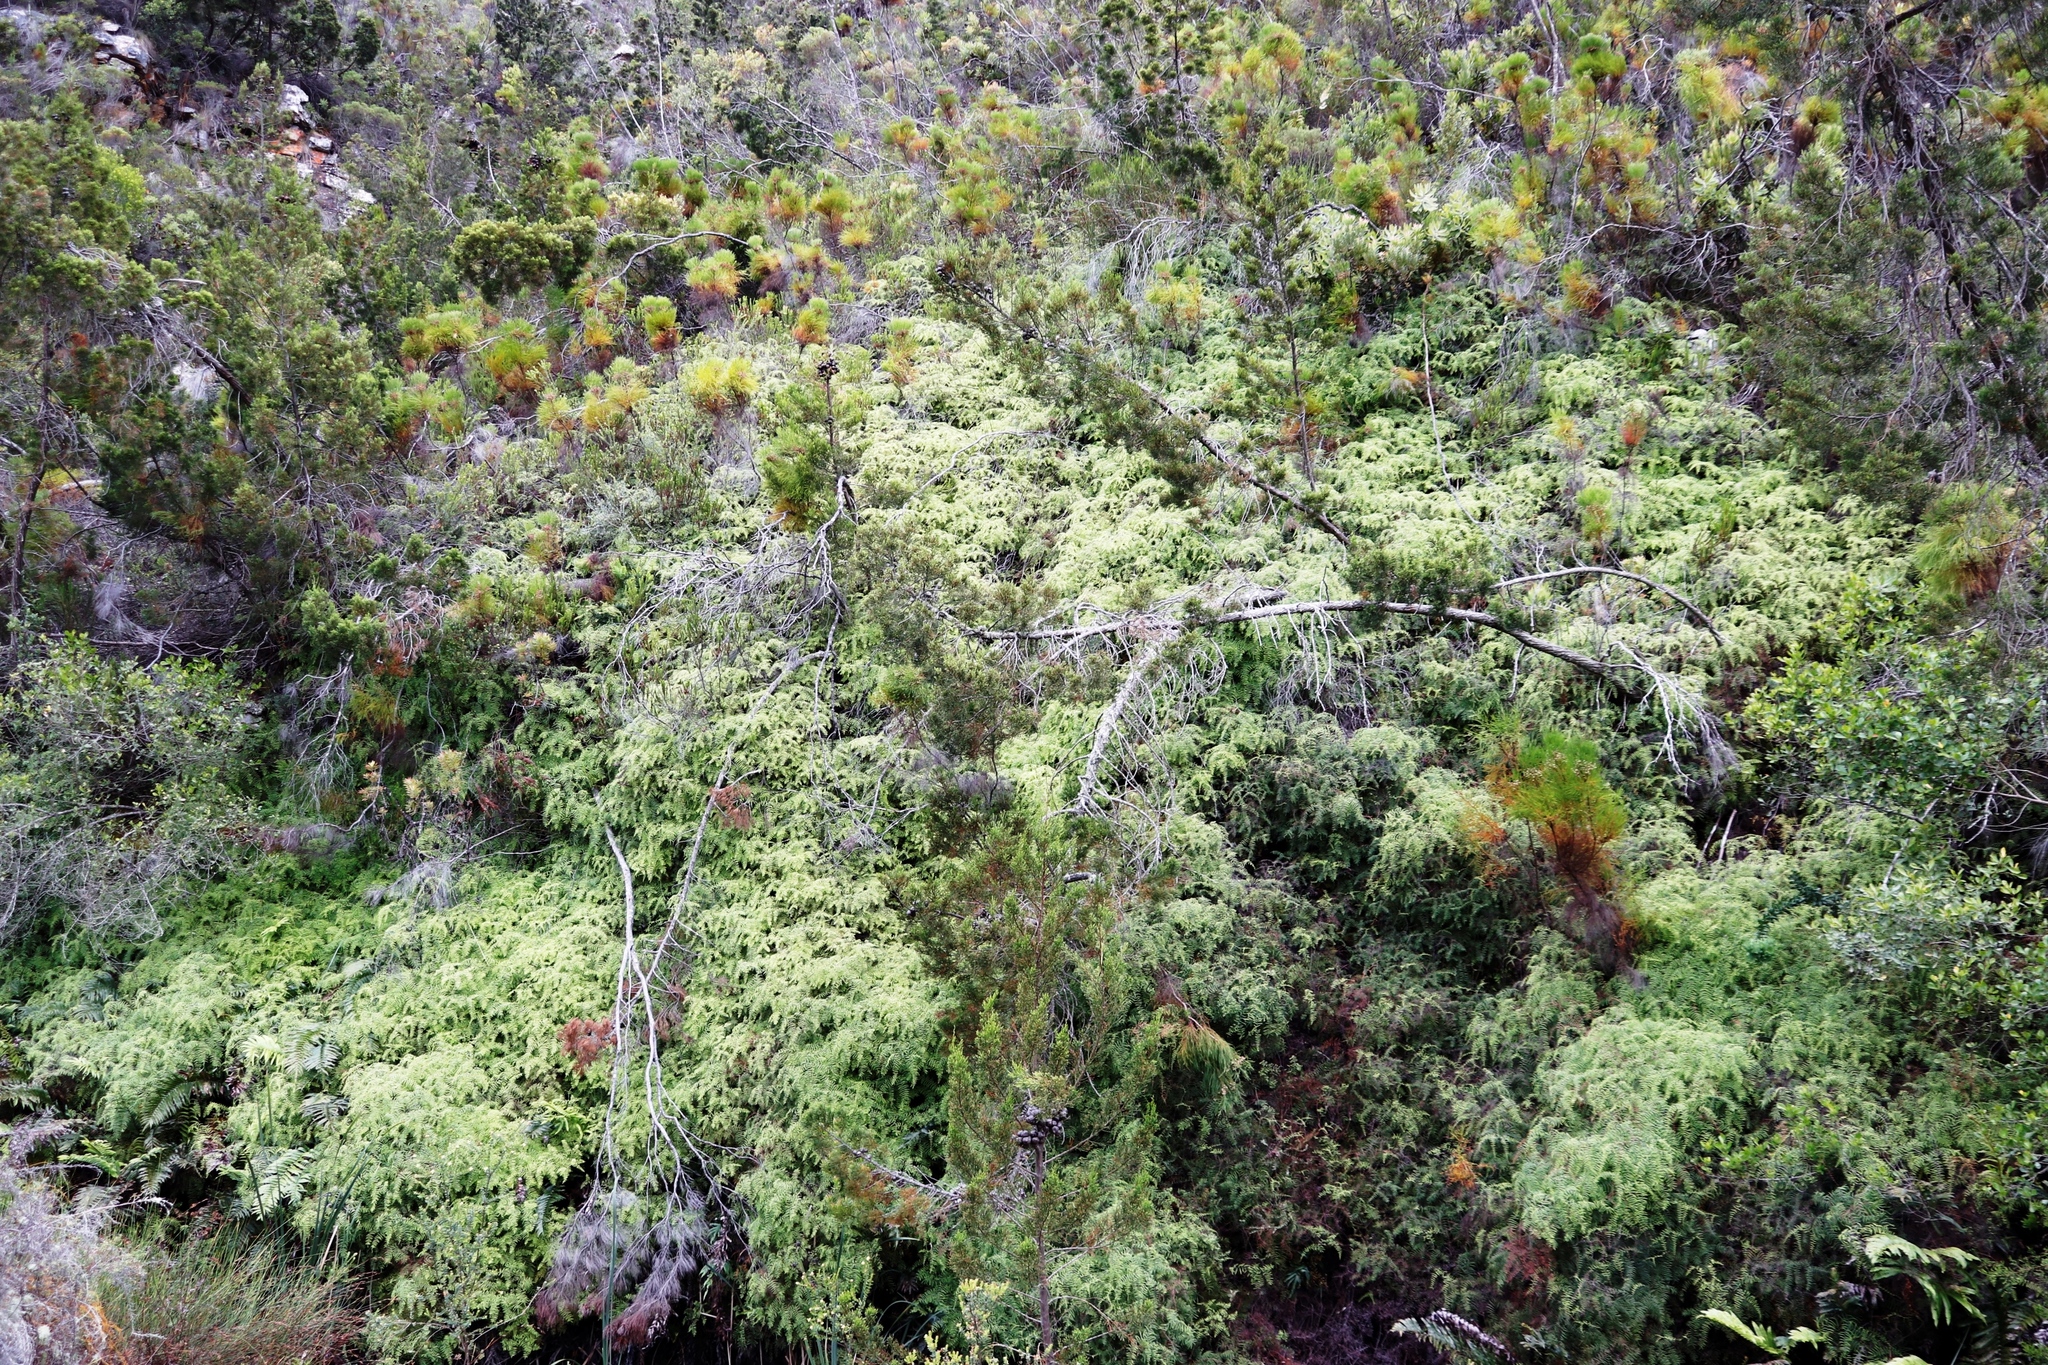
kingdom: Plantae
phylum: Tracheophyta
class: Polypodiopsida
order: Gleicheniales
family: Gleicheniaceae
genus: Gleichenia
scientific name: Gleichenia polypodioides
